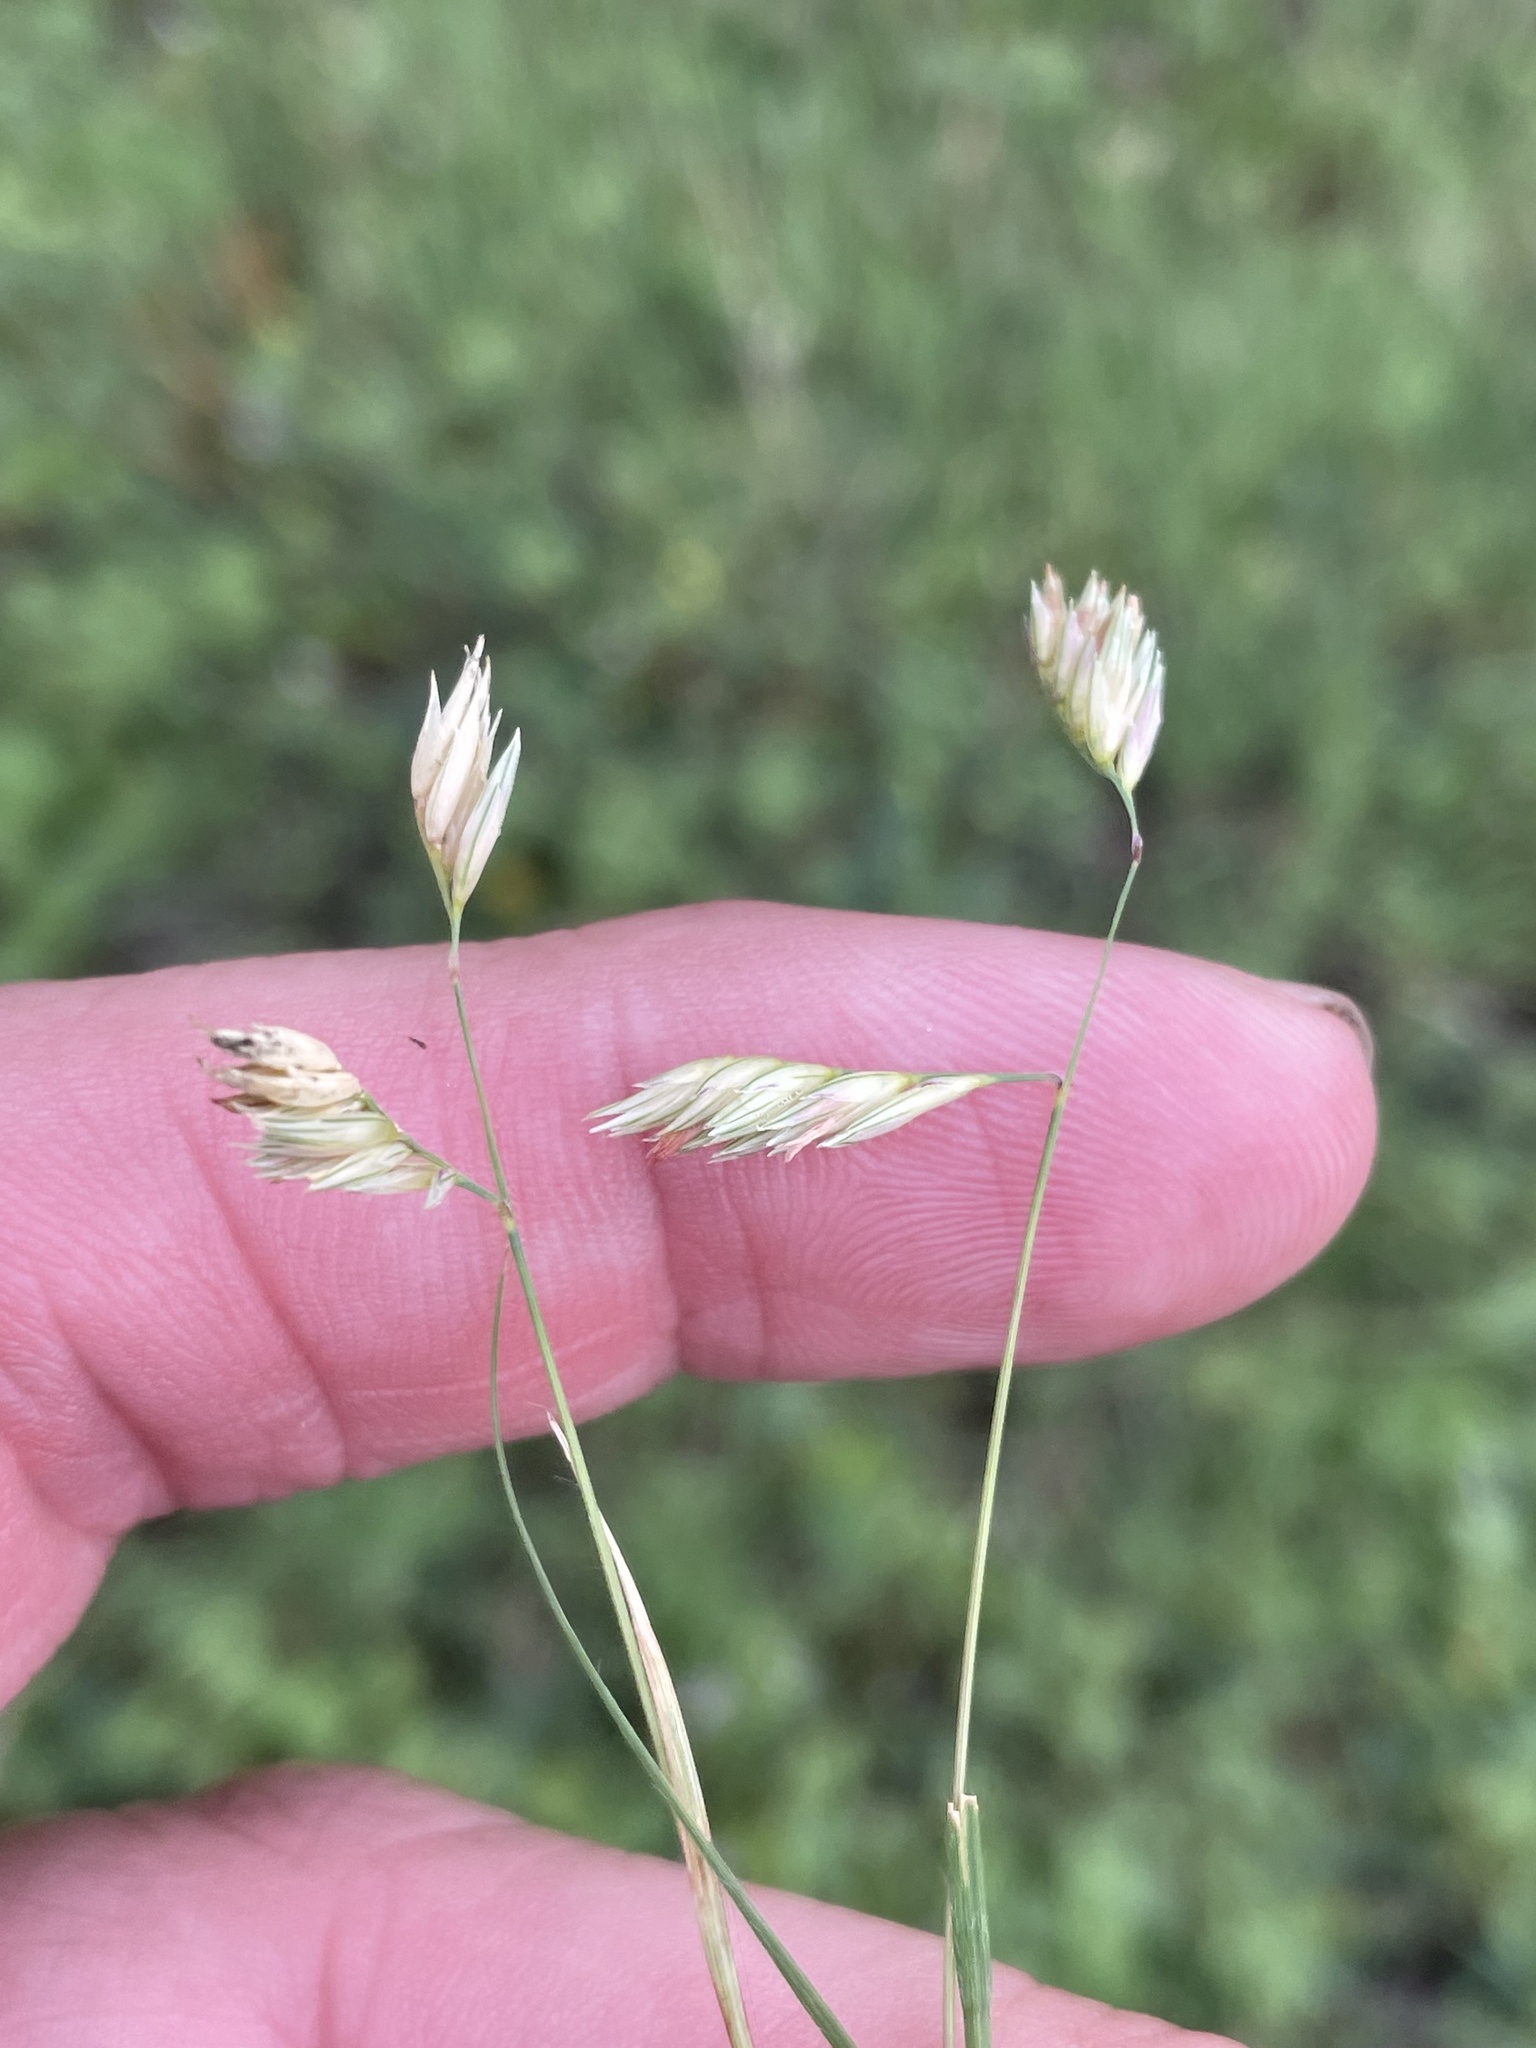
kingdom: Plantae
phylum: Tracheophyta
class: Liliopsida
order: Poales
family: Poaceae
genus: Bouteloua
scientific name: Bouteloua dactyloides
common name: Buffalo grass
